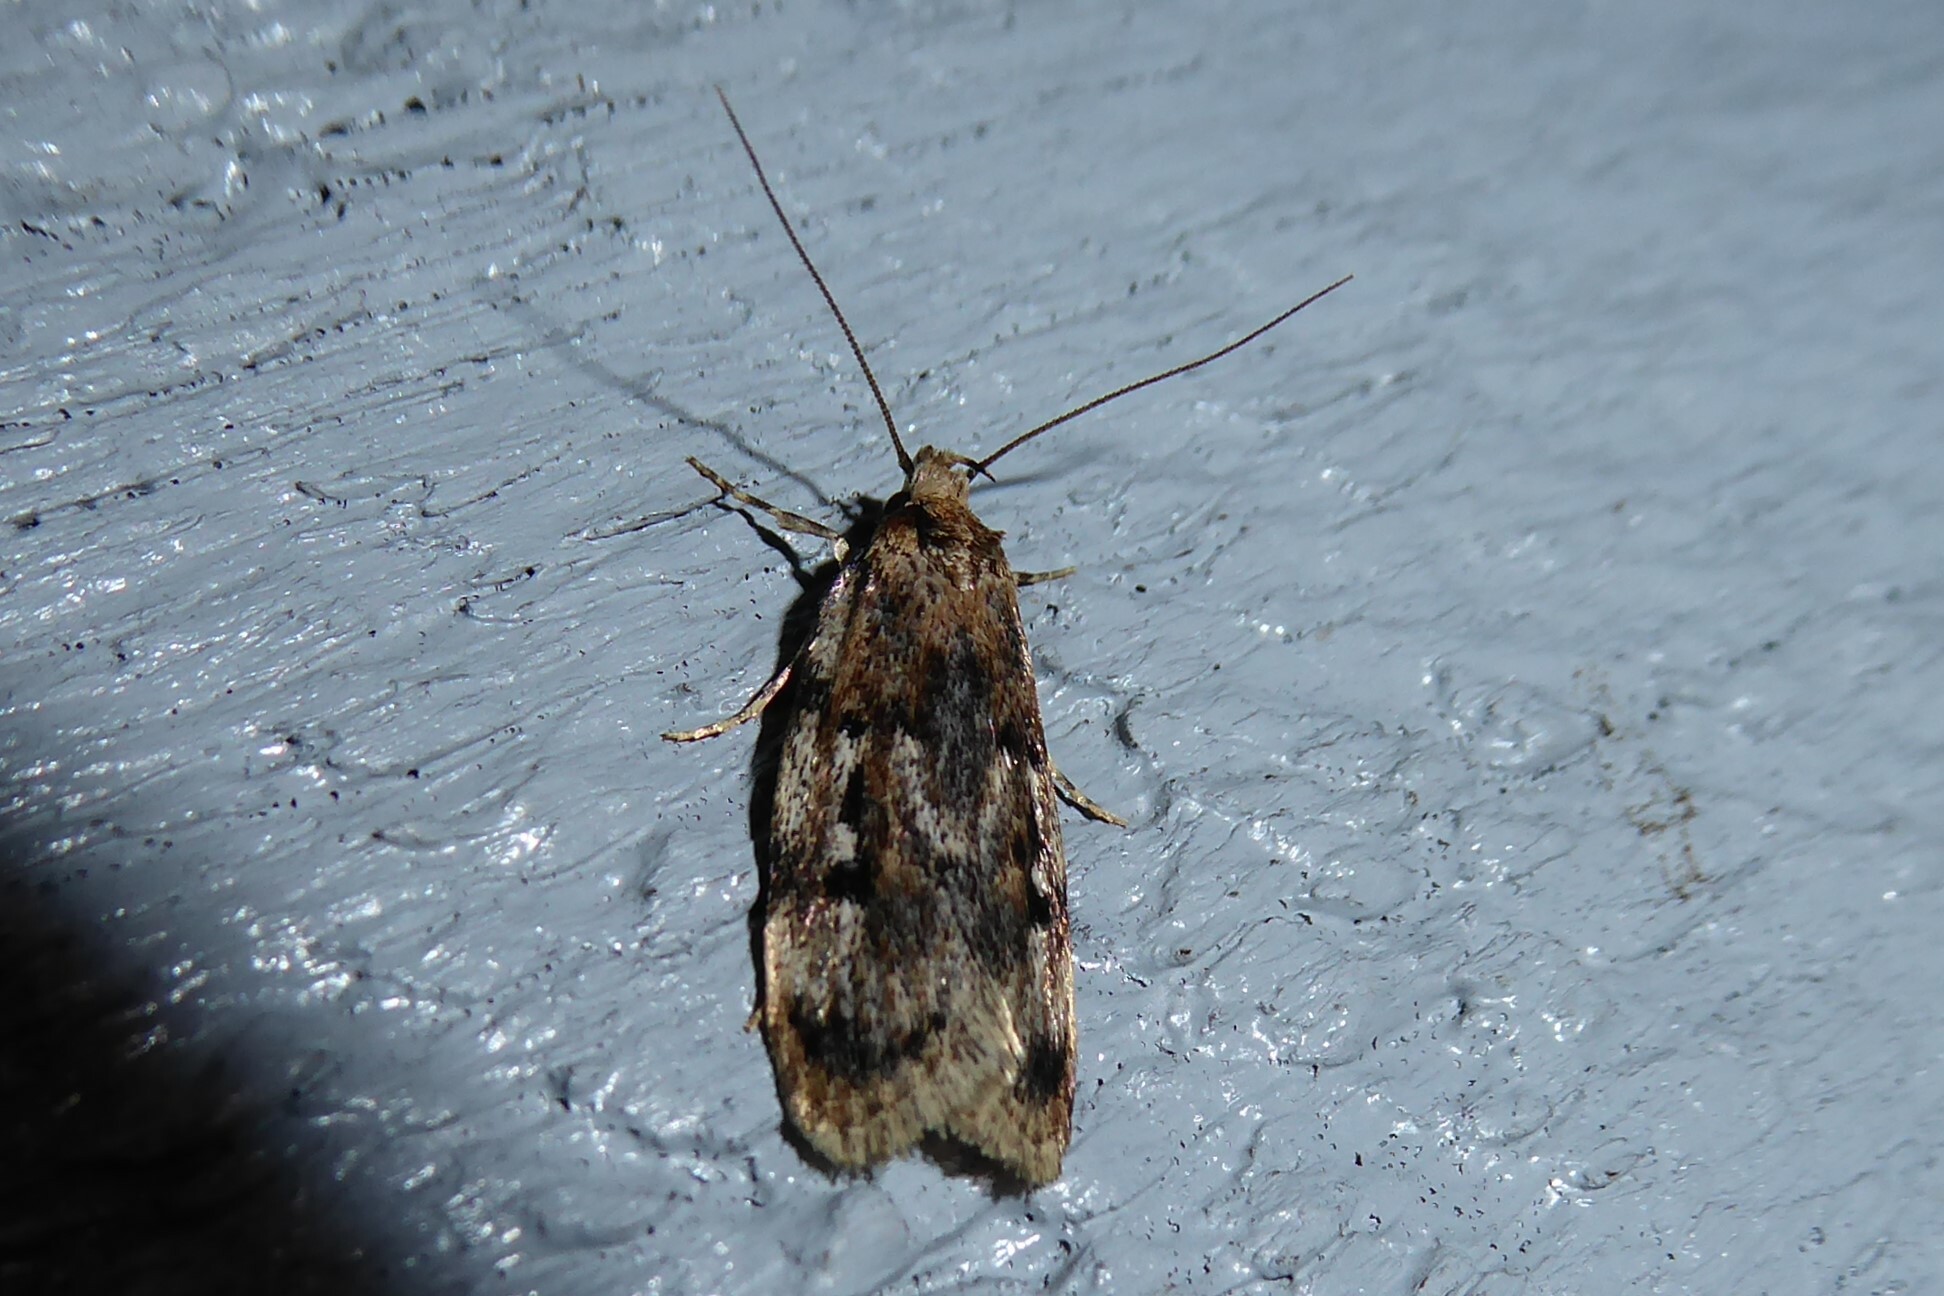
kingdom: Animalia
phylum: Arthropoda
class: Insecta
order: Lepidoptera
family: Oecophoridae
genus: Barea
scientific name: Barea exarcha
